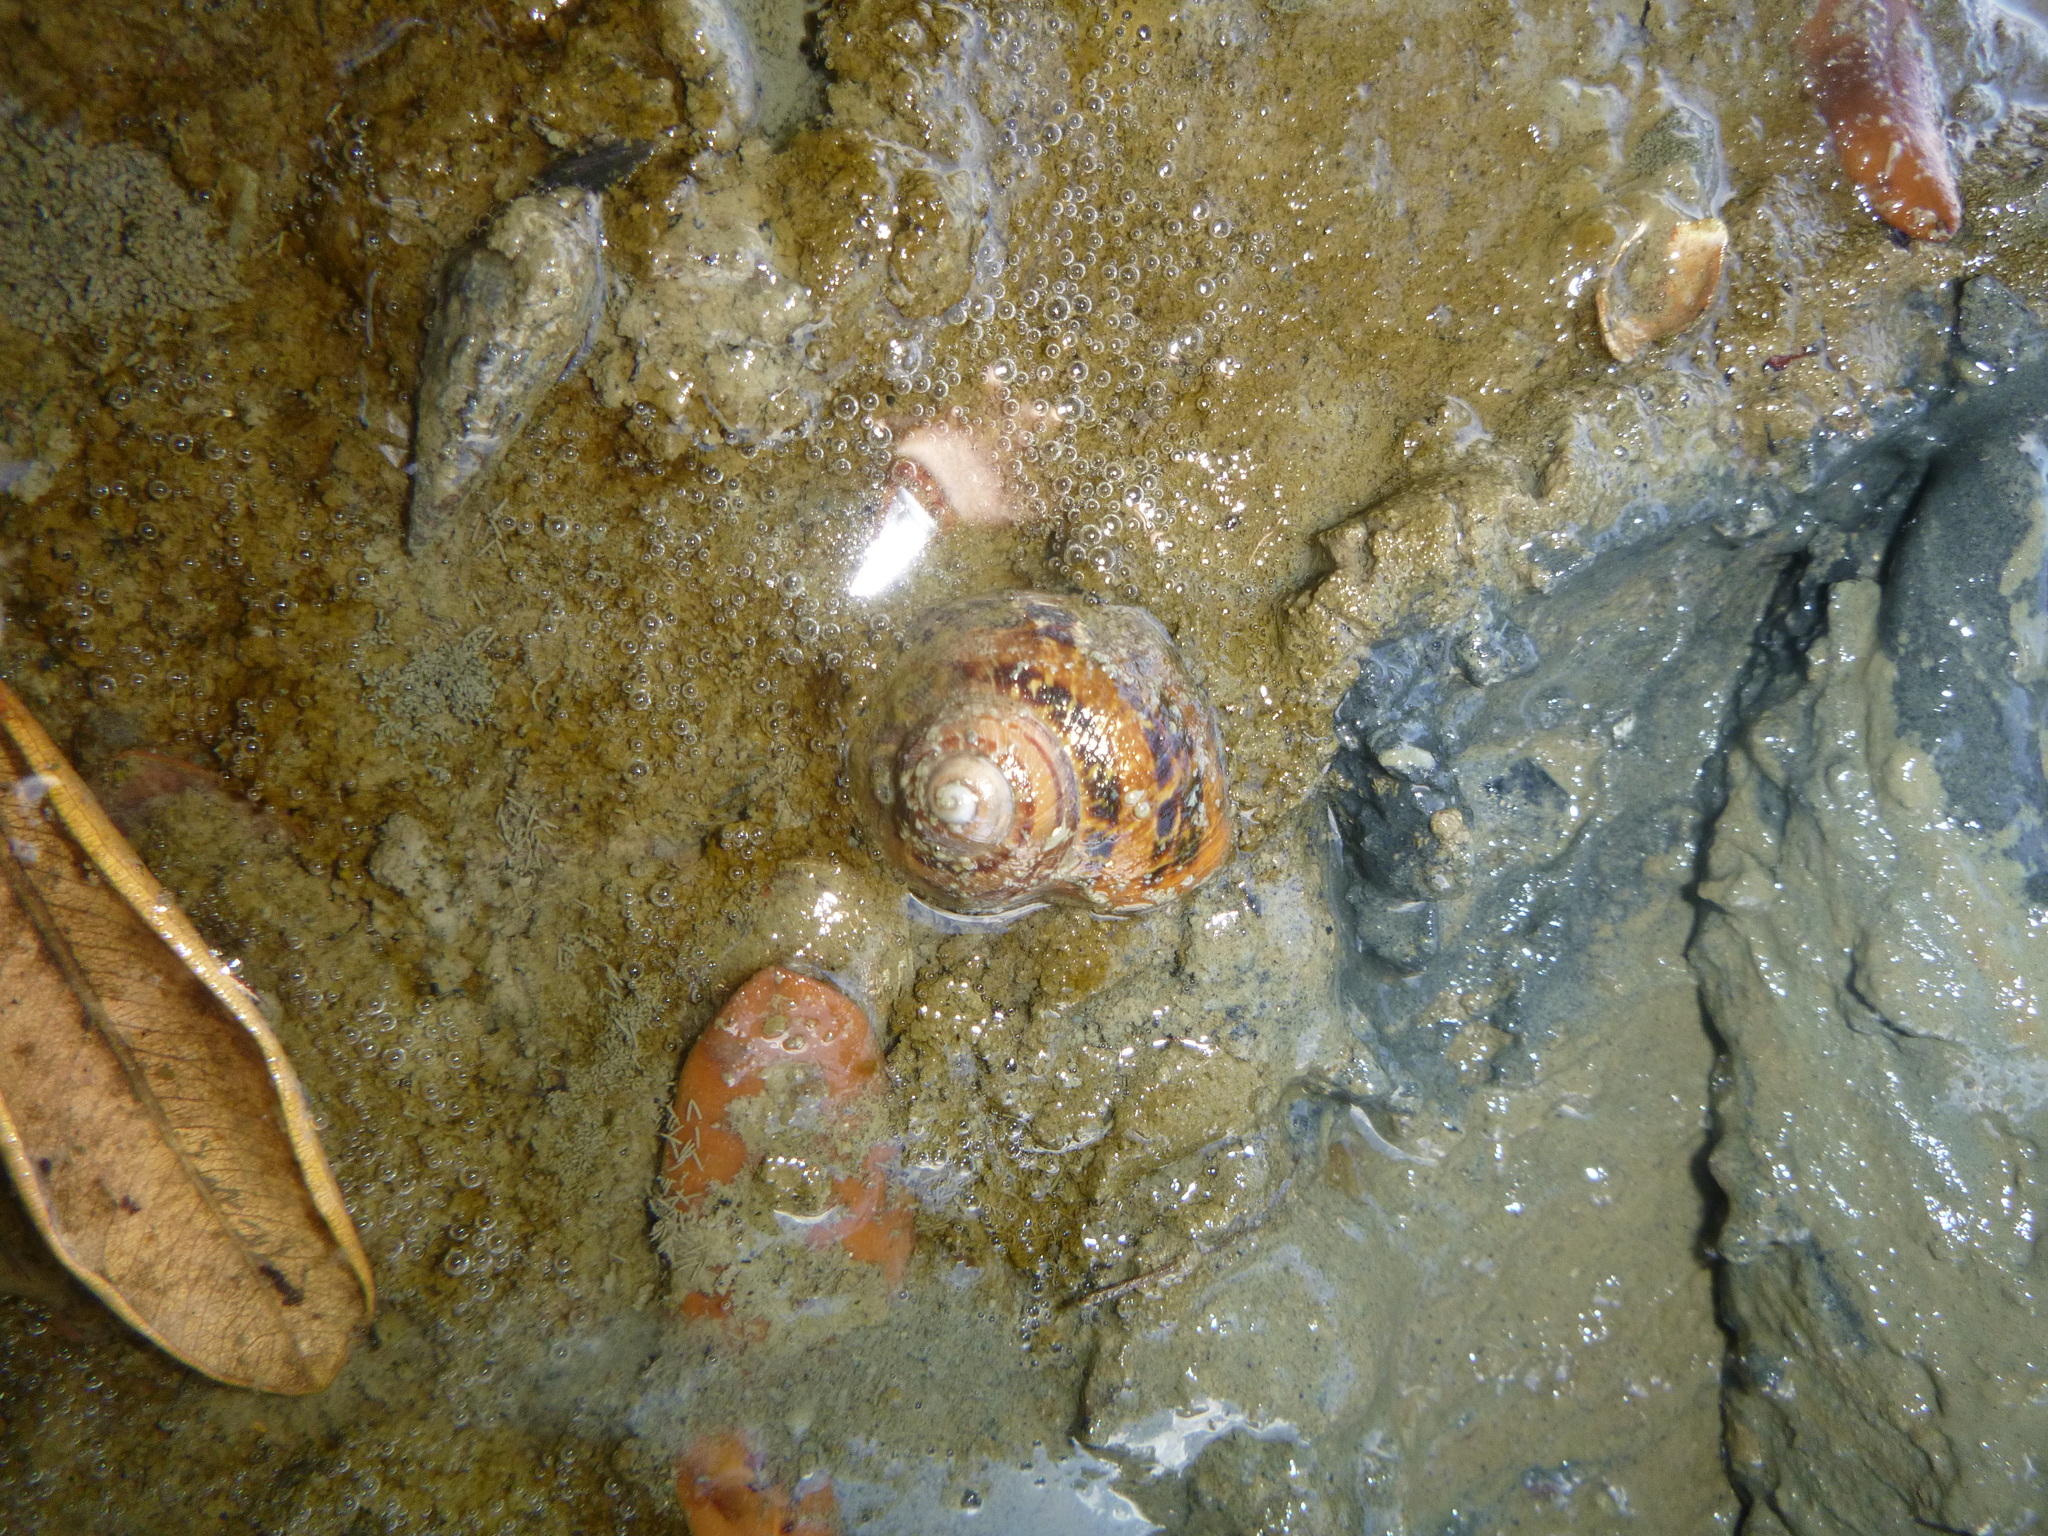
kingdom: Animalia
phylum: Mollusca
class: Gastropoda
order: Stylommatophora
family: Helicidae
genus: Cornu
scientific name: Cornu aspersum
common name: Brown garden snail
